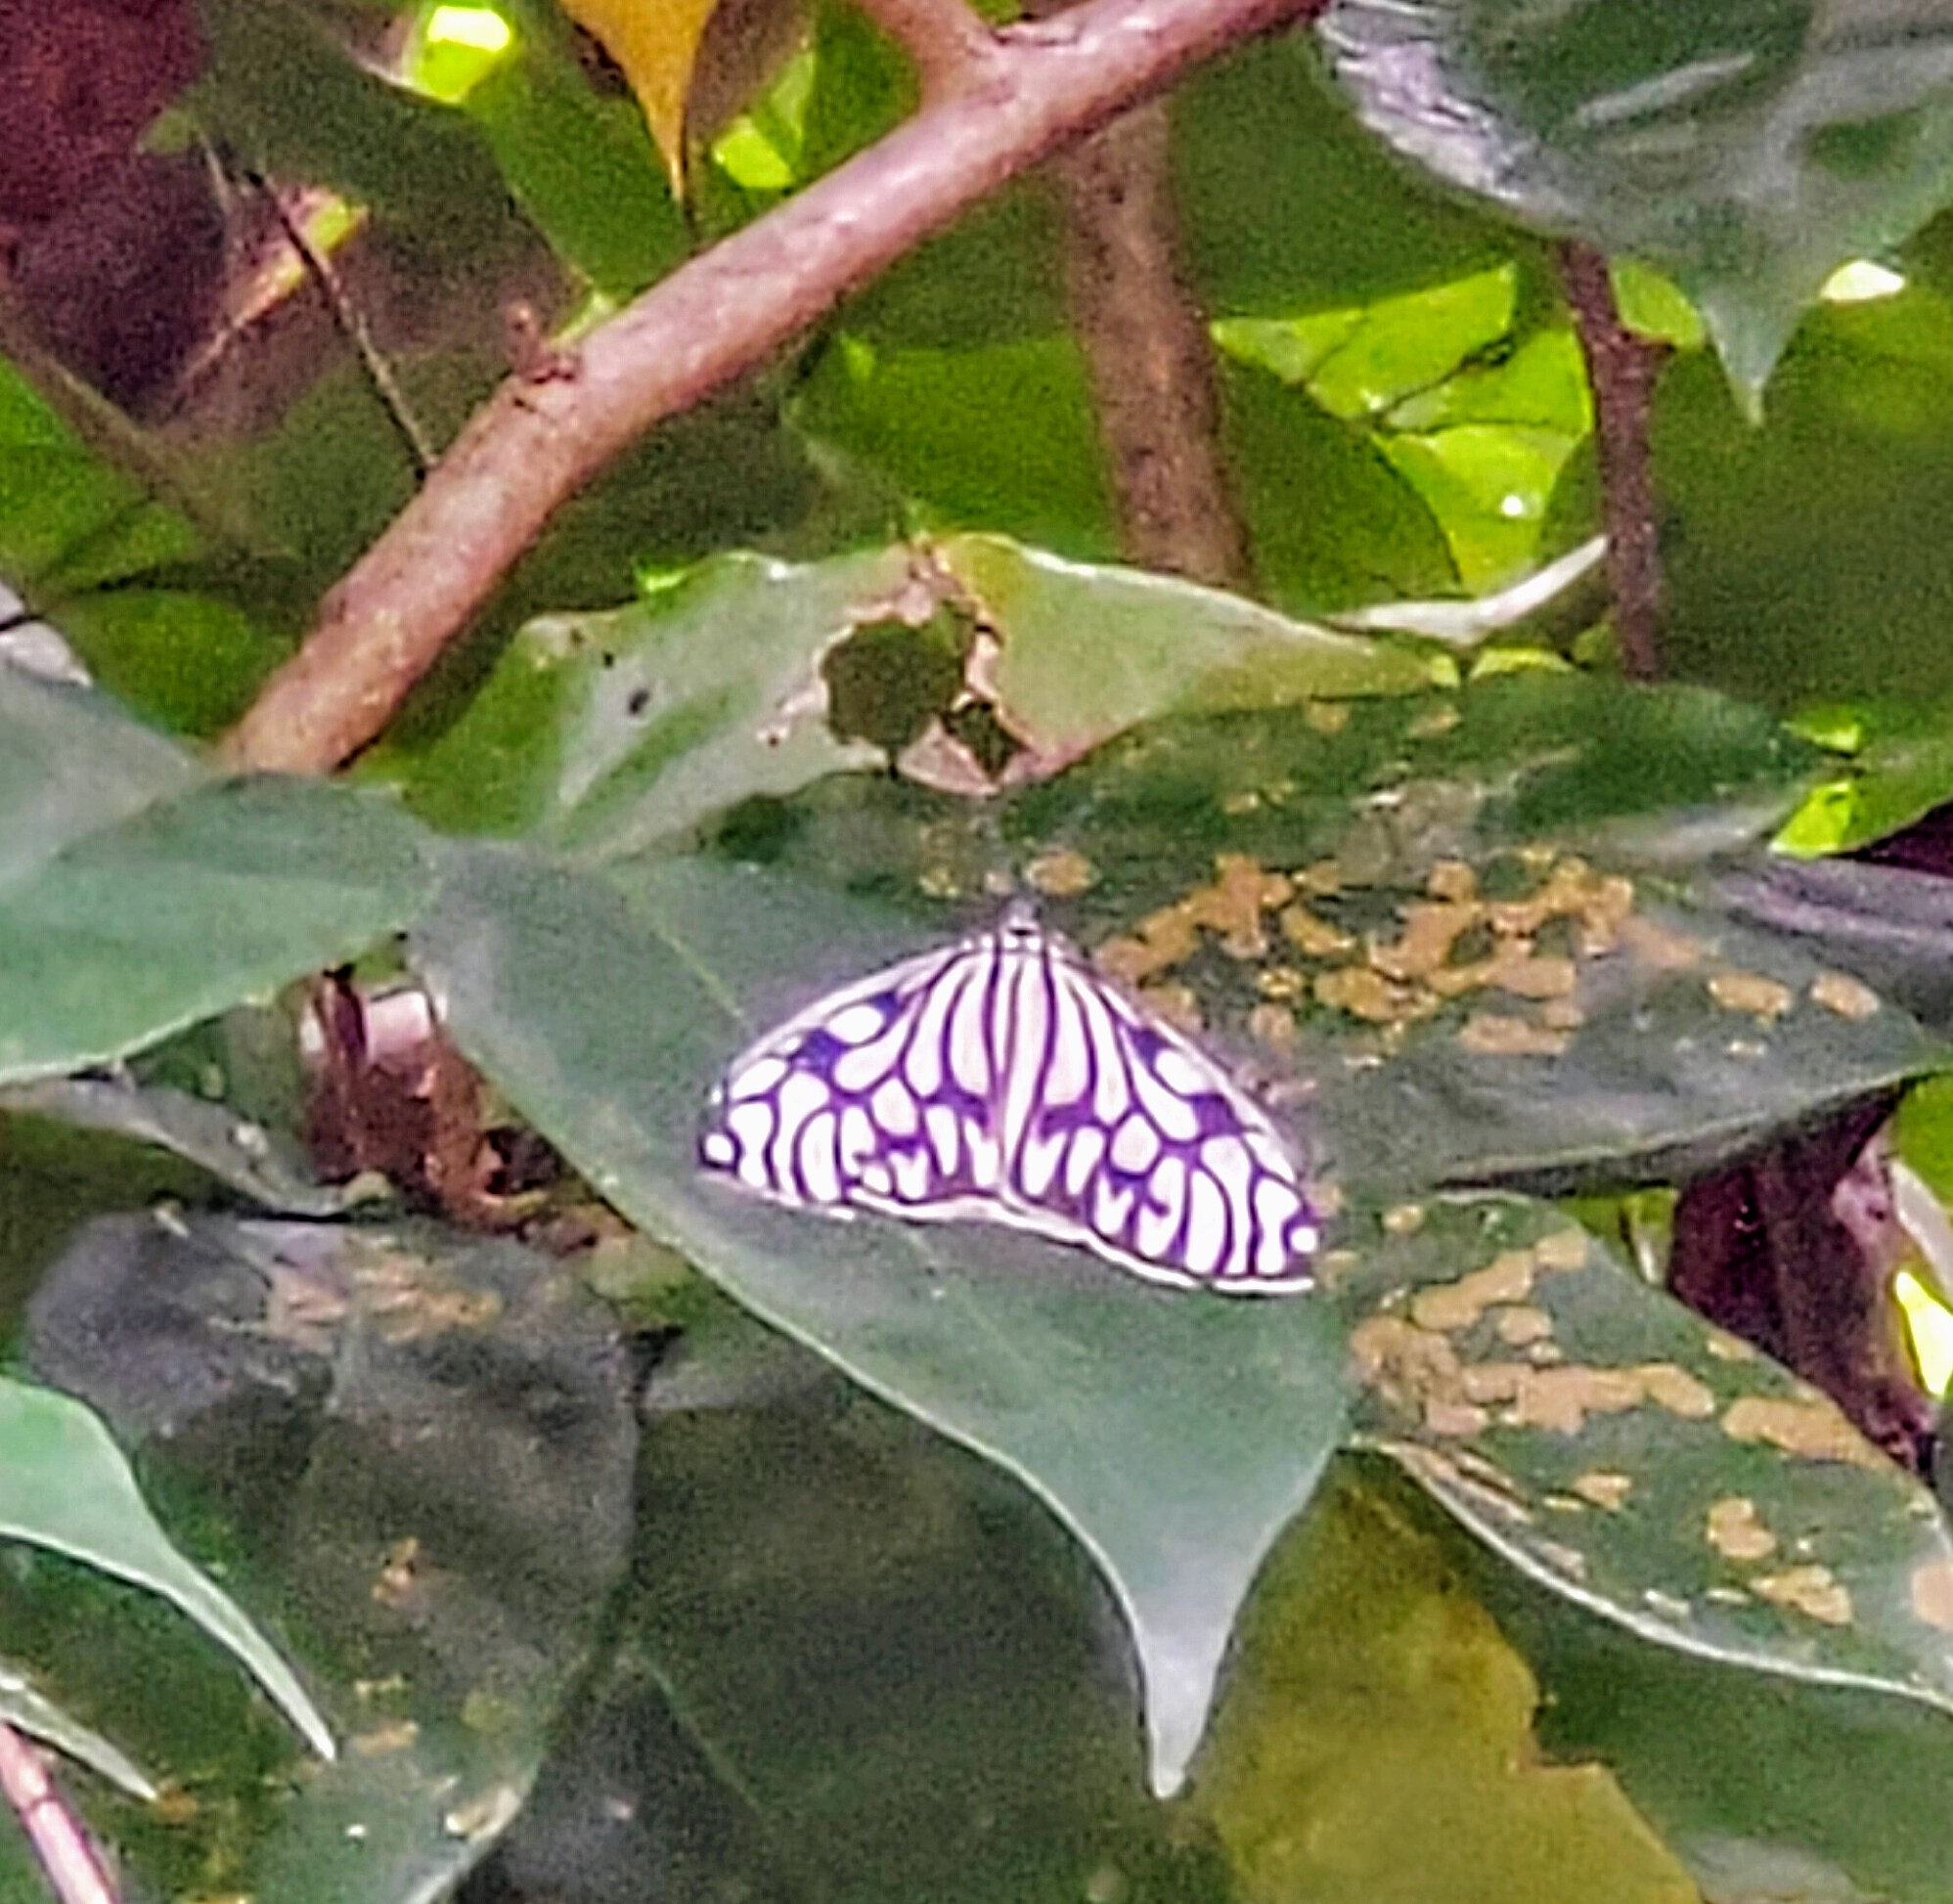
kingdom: Animalia
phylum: Arthropoda
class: Insecta
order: Lepidoptera
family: Zygaenidae
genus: Cyclosia
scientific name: Cyclosia pieridoides
